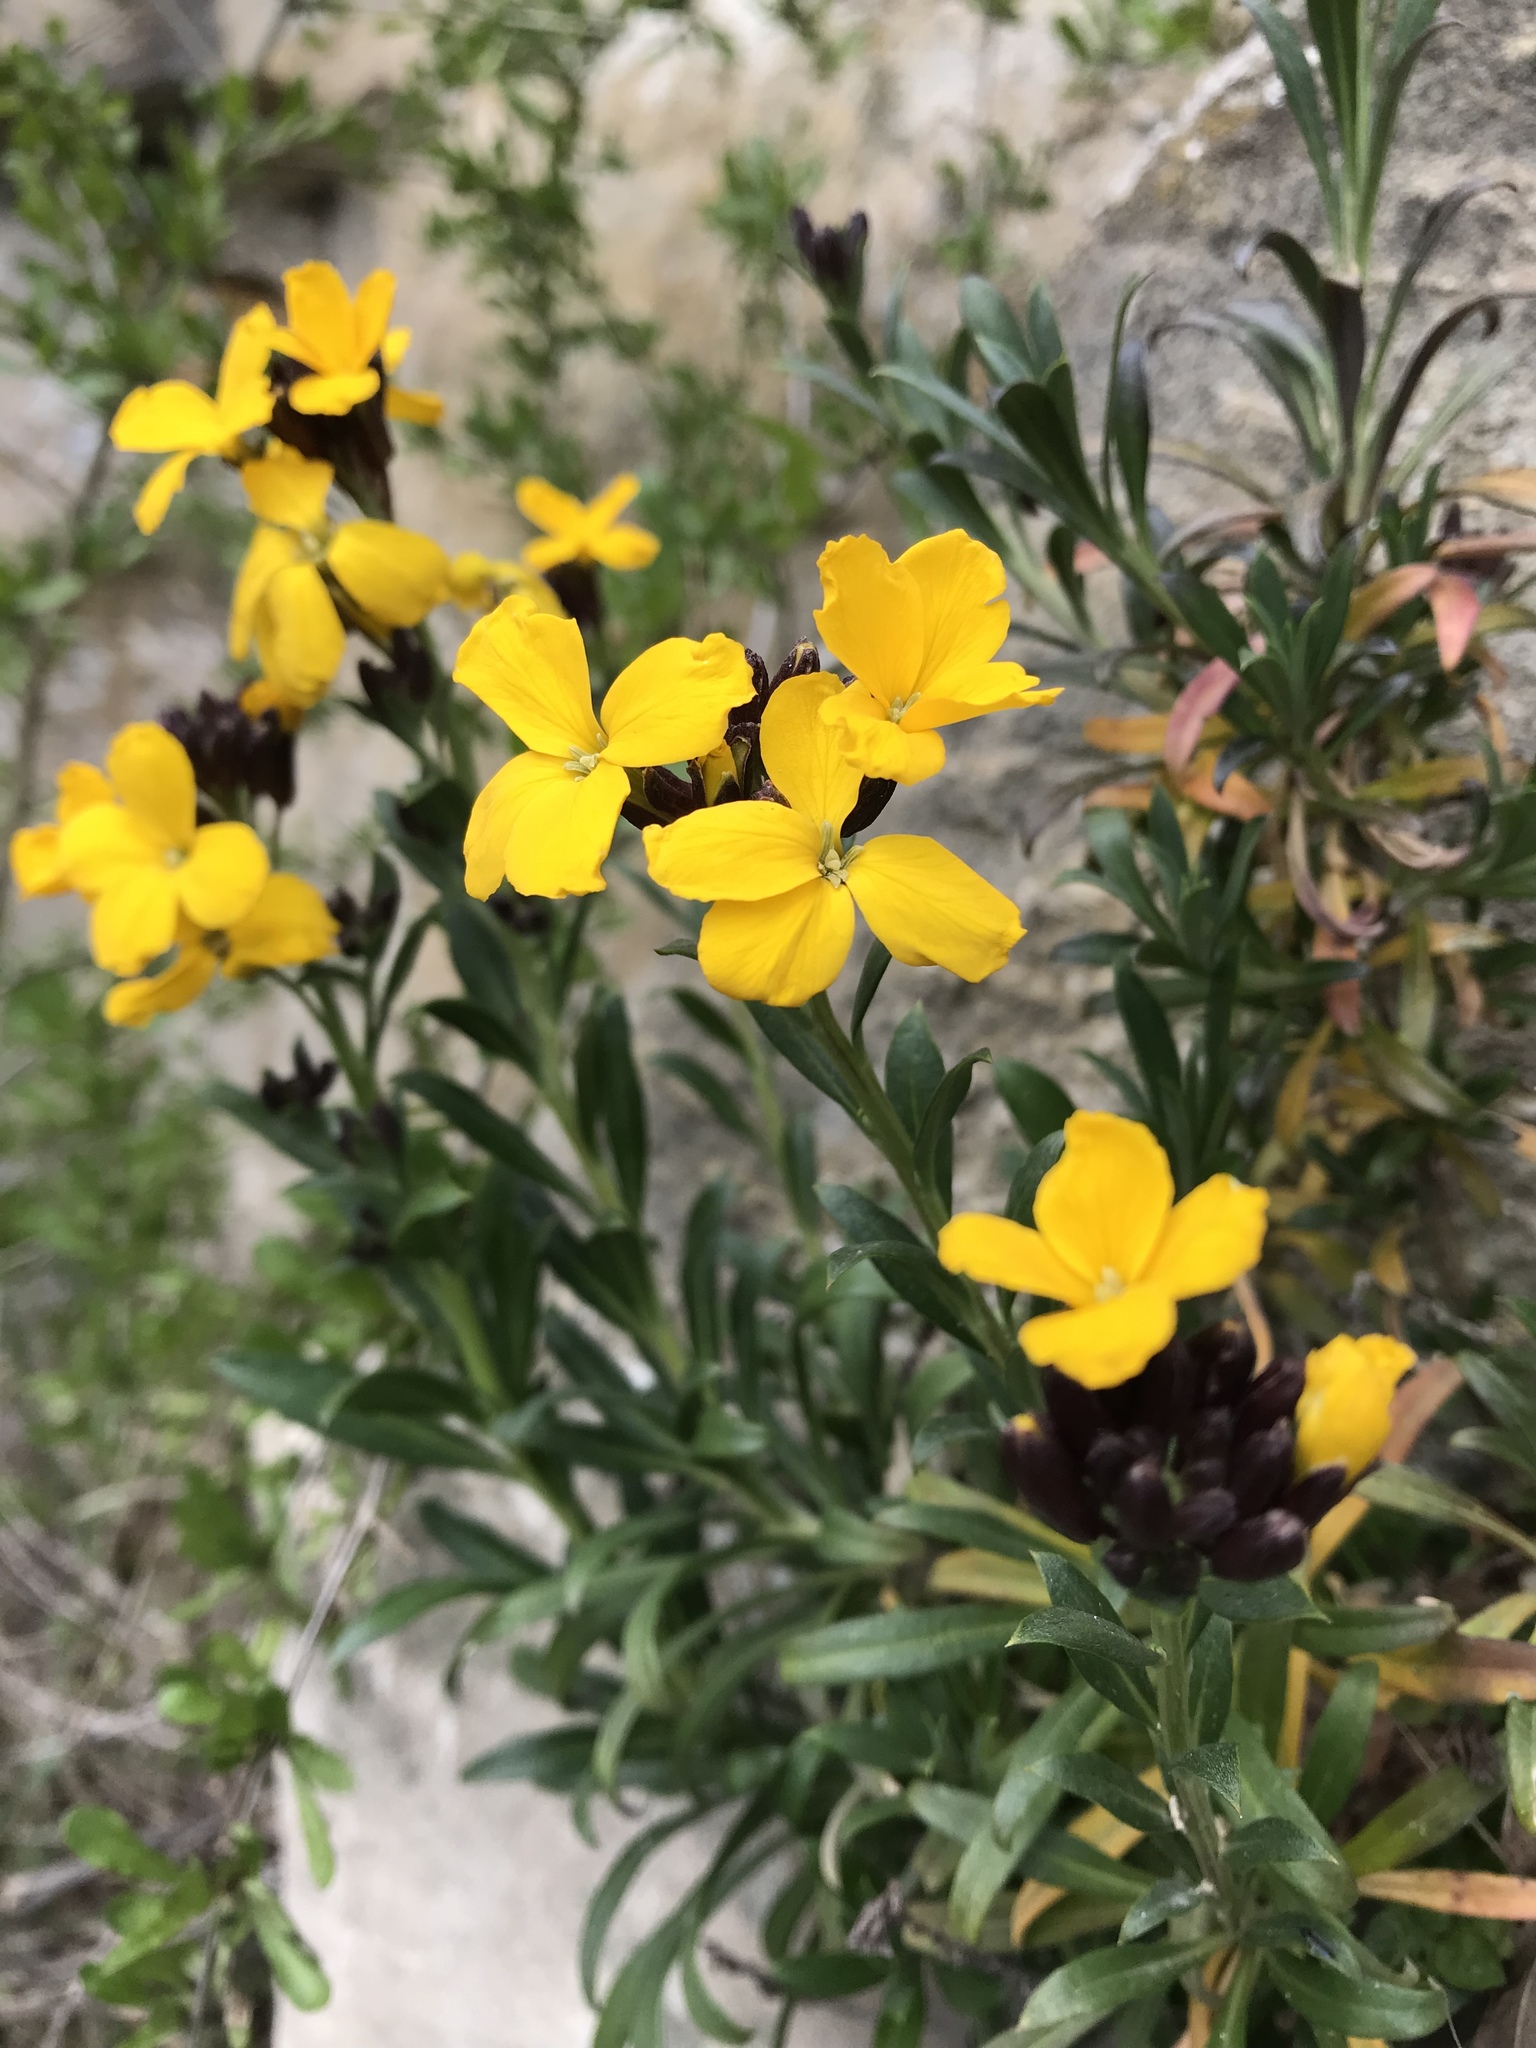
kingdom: Plantae
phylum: Tracheophyta
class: Magnoliopsida
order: Brassicales
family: Brassicaceae
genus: Erysimum
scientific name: Erysimum cheiri
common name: Wallflower
